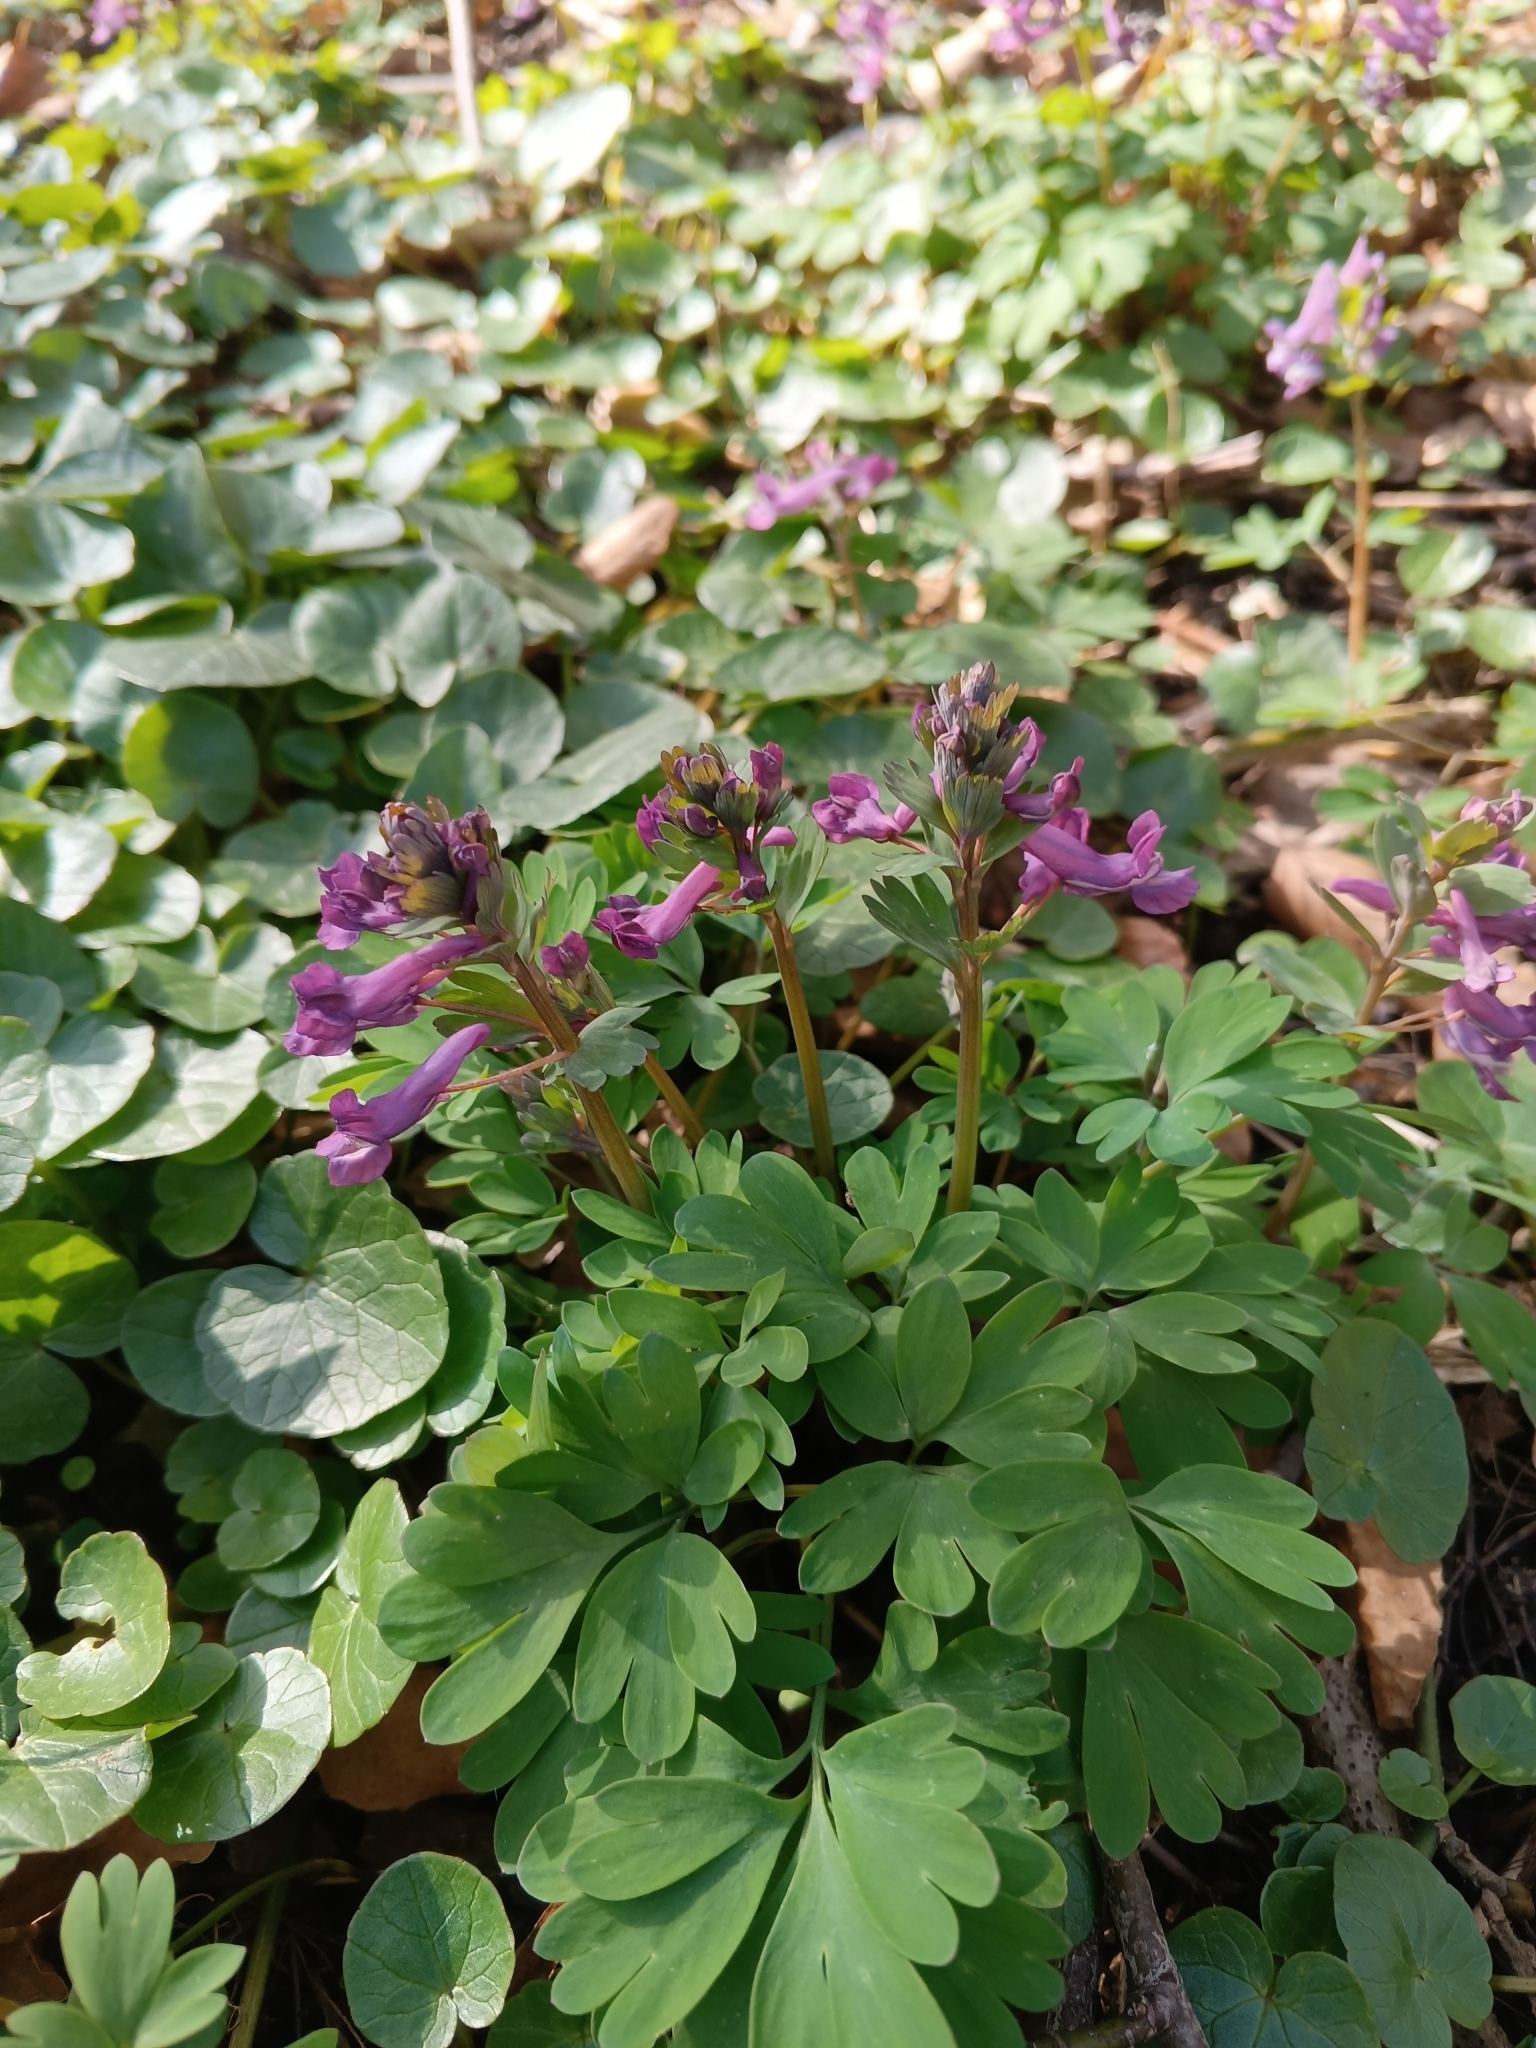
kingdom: Plantae
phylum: Tracheophyta
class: Magnoliopsida
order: Ranunculales
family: Papaveraceae
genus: Corydalis
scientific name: Corydalis solida
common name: Bird-in-a-bush
